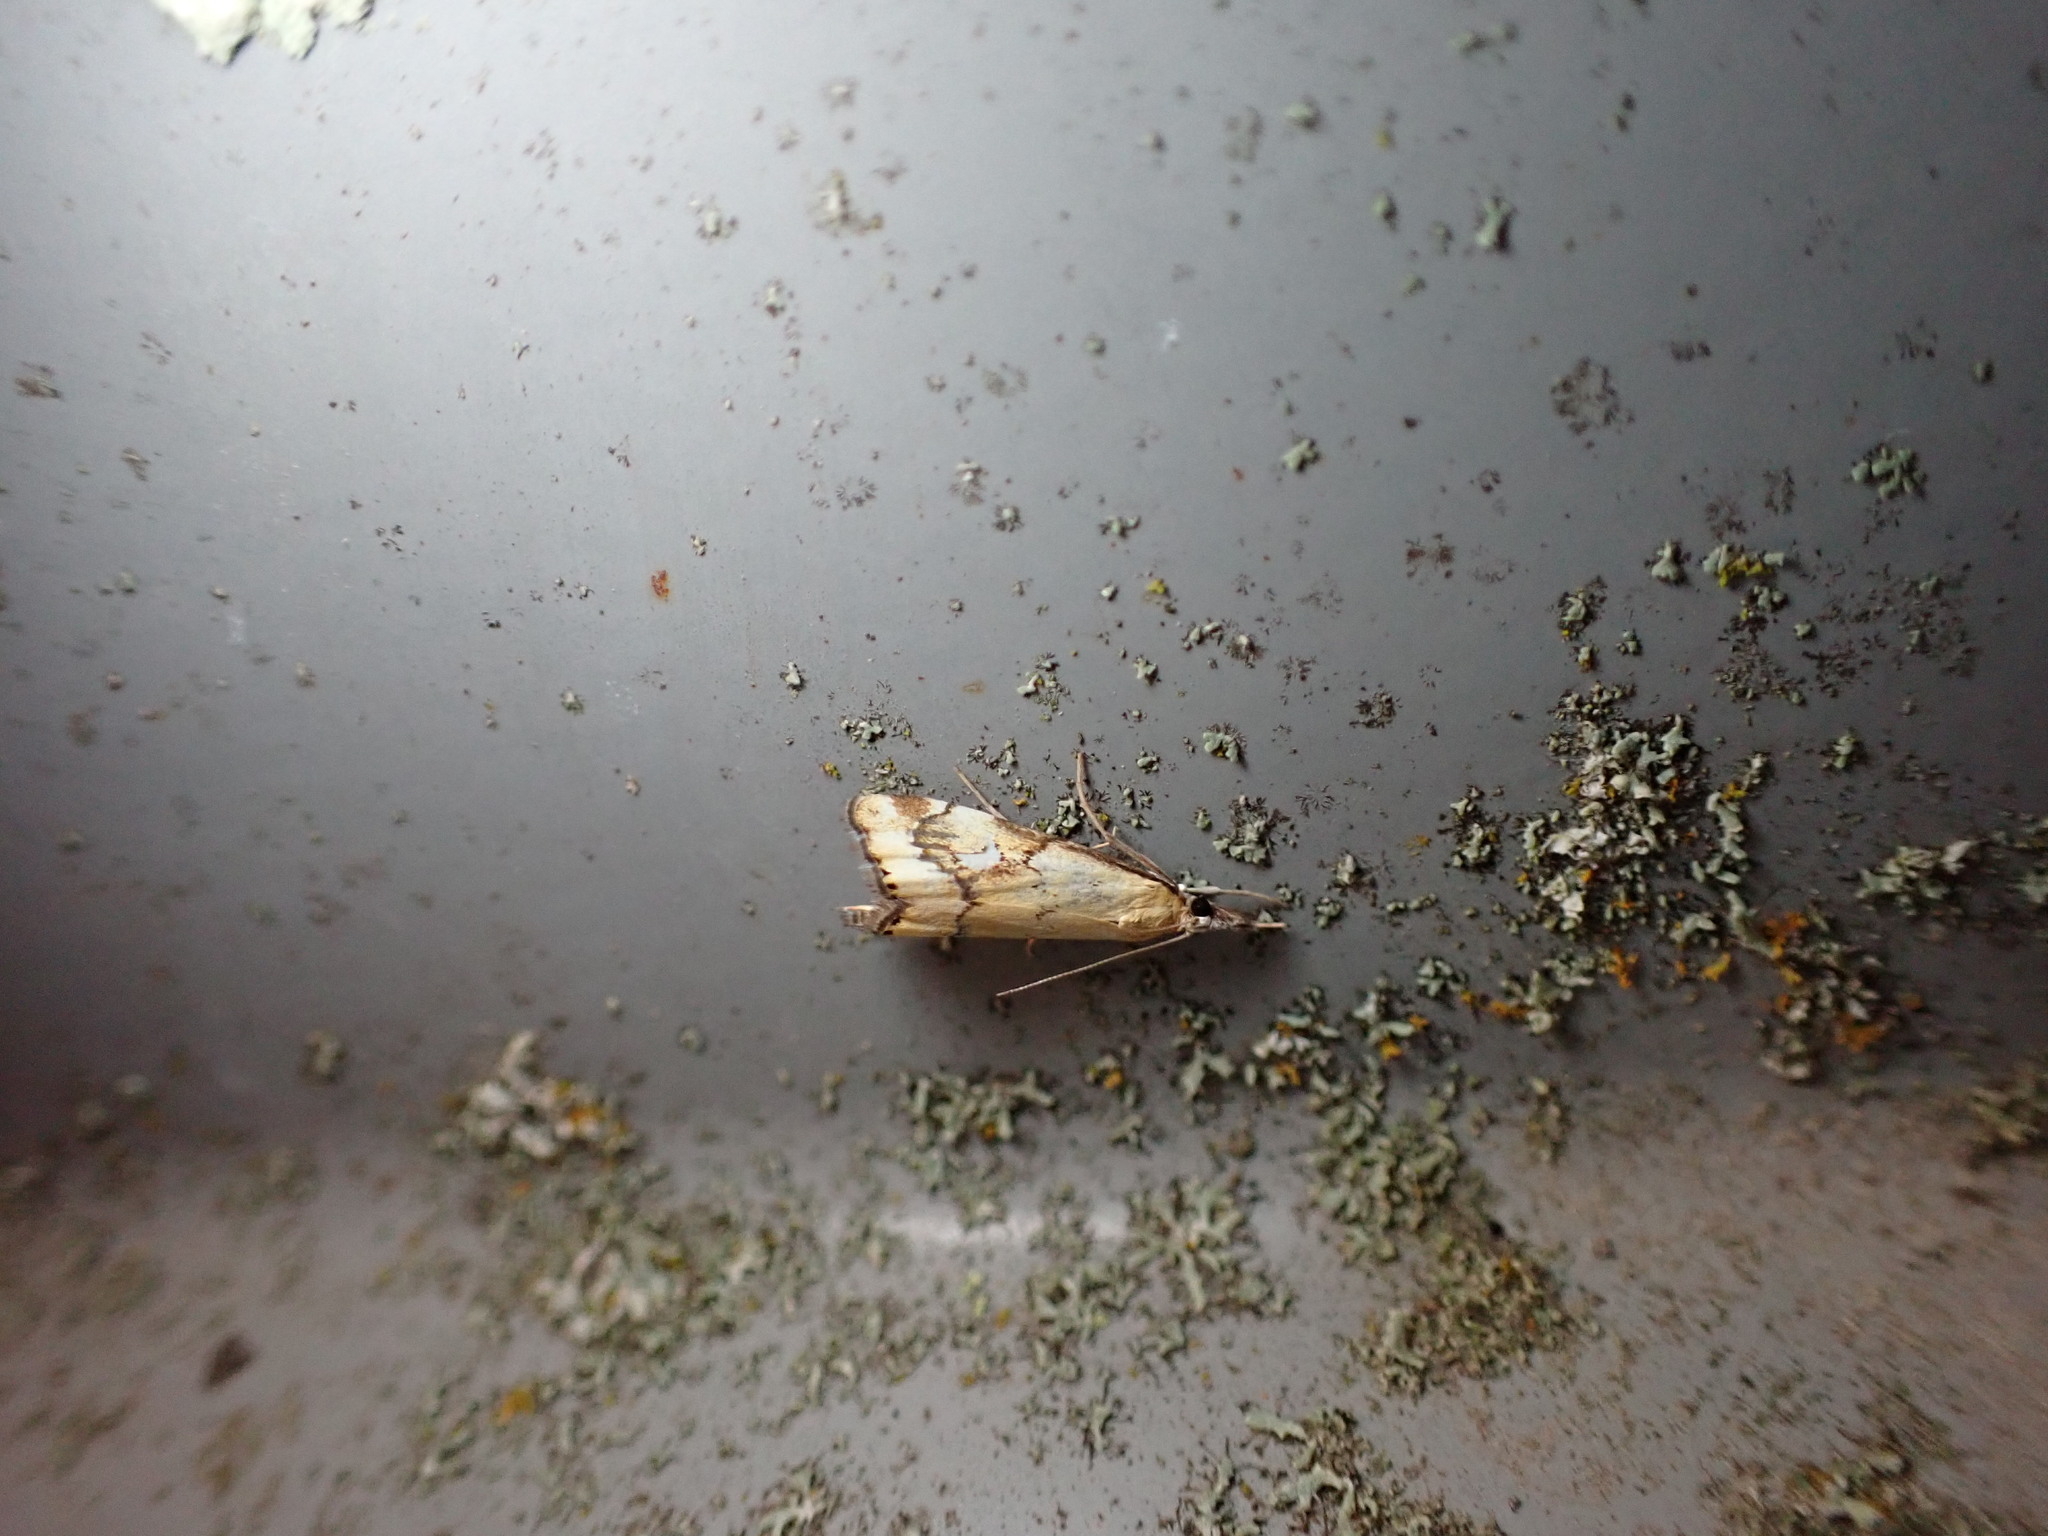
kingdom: Animalia
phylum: Arthropoda
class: Insecta
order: Lepidoptera
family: Crambidae
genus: Glaucocharis
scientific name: Glaucocharis lepidella
